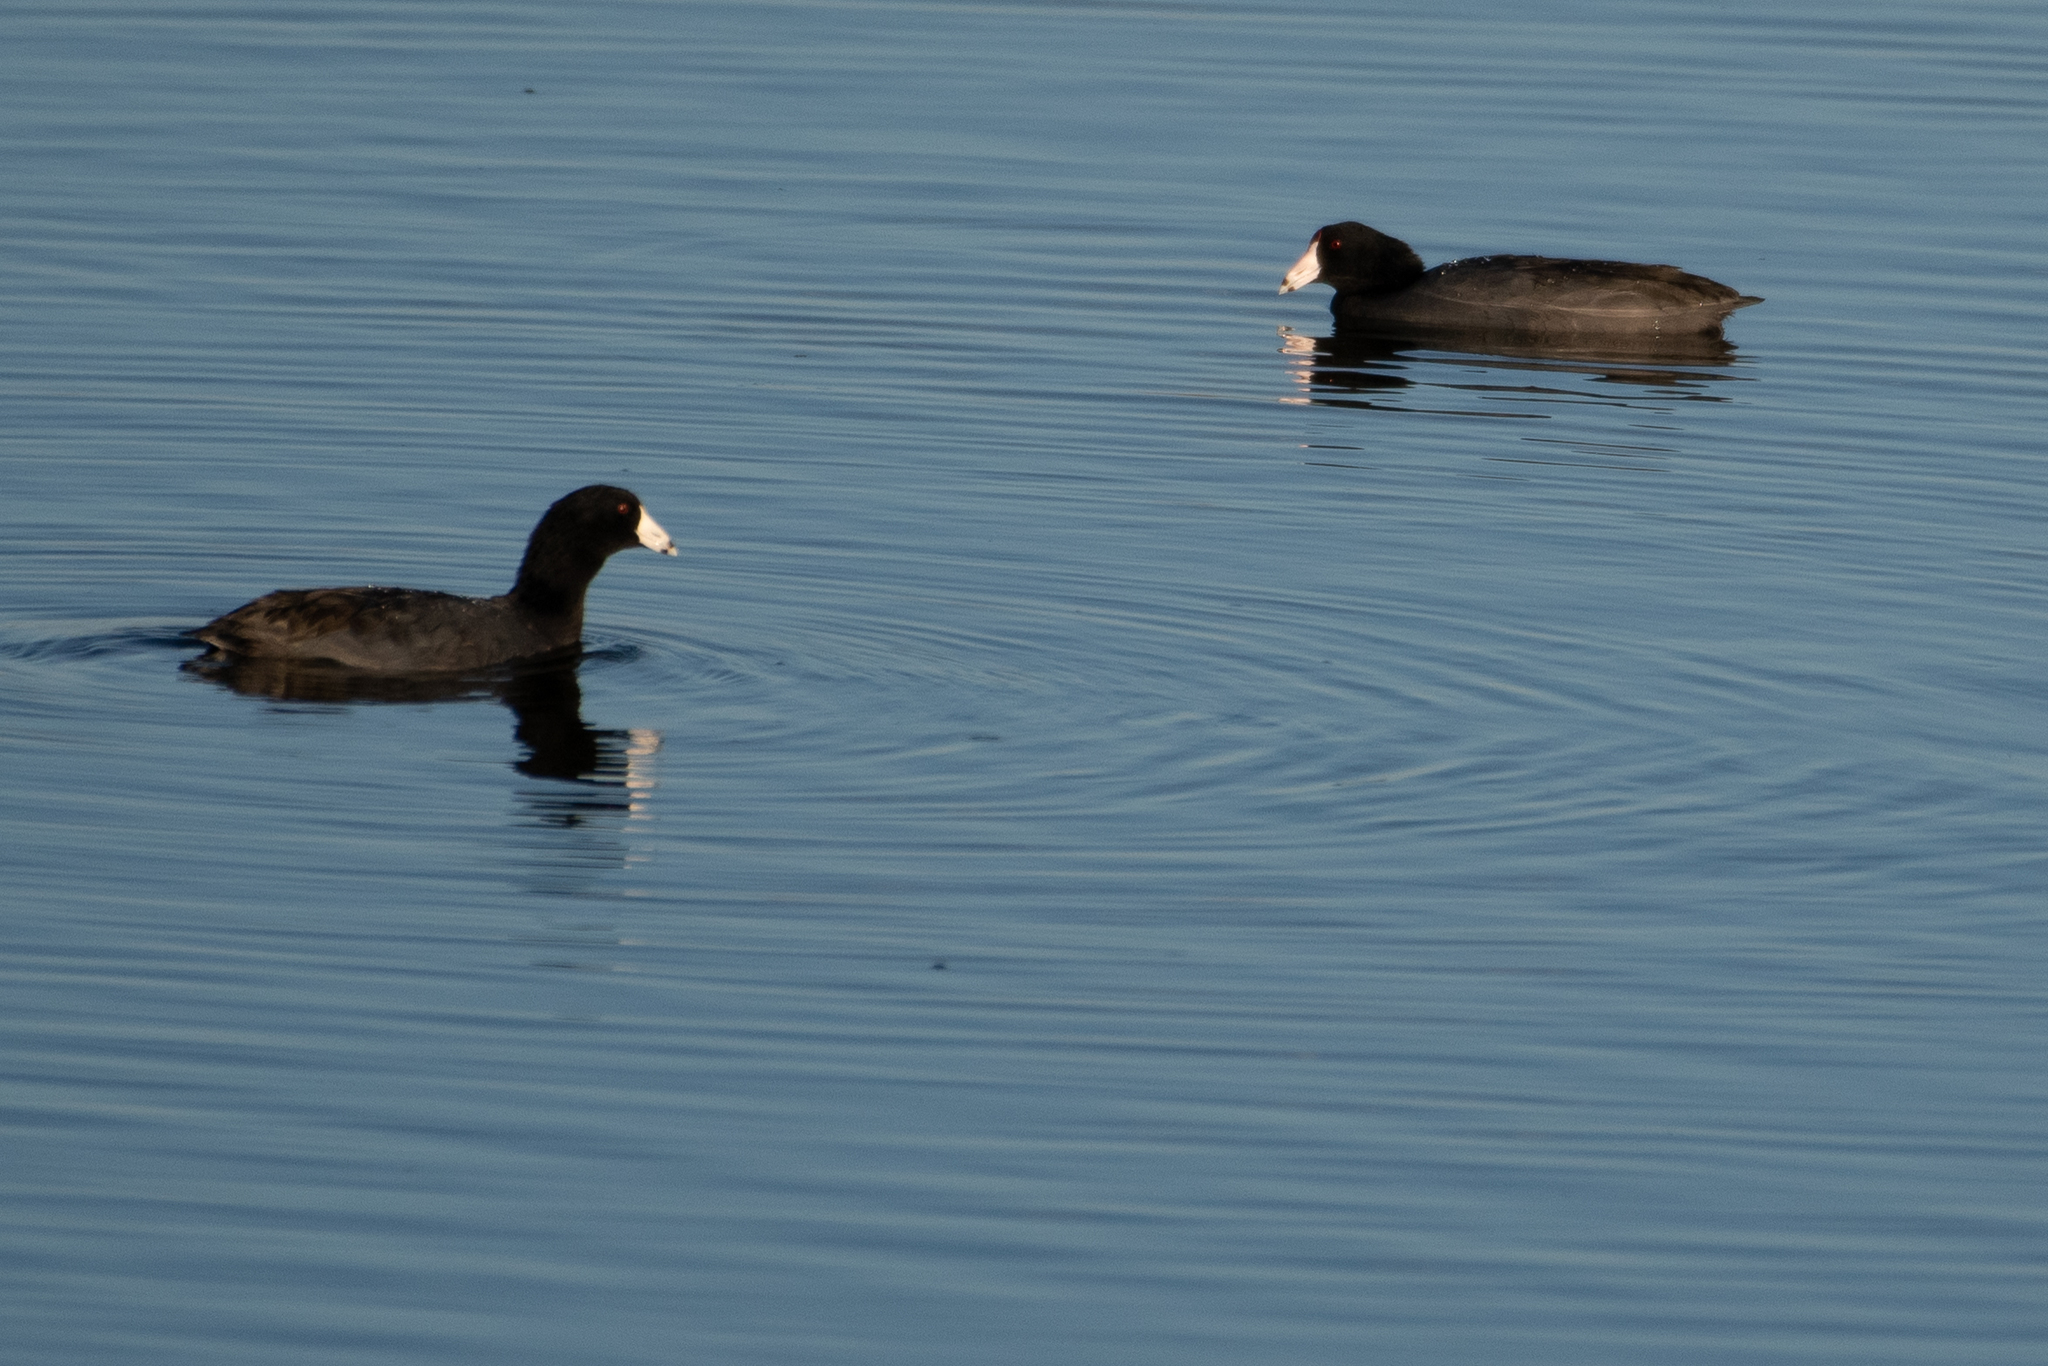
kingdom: Animalia
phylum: Chordata
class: Aves
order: Gruiformes
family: Rallidae
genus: Fulica
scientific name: Fulica americana
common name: American coot
